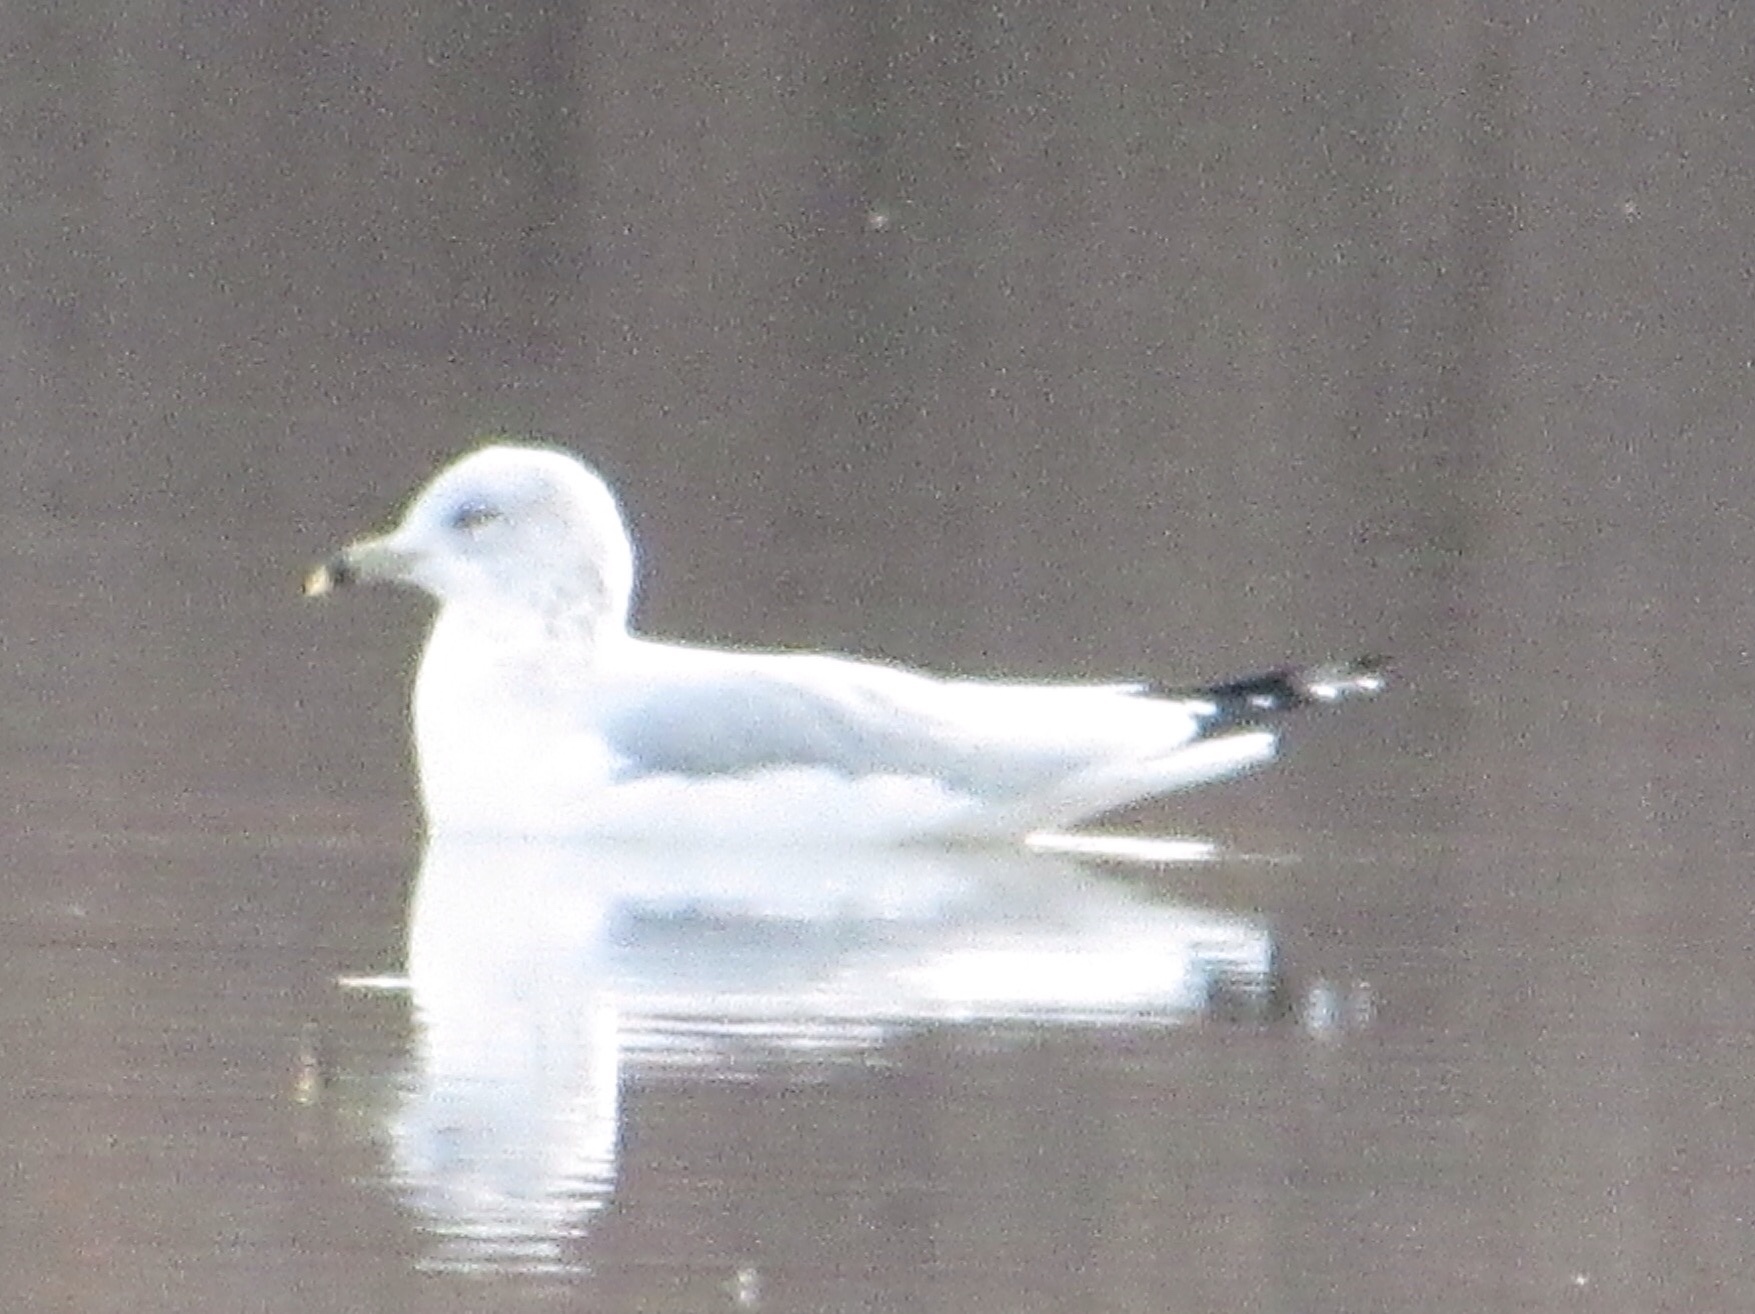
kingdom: Animalia
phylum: Chordata
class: Aves
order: Charadriiformes
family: Laridae
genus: Larus
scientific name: Larus delawarensis
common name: Ring-billed gull
